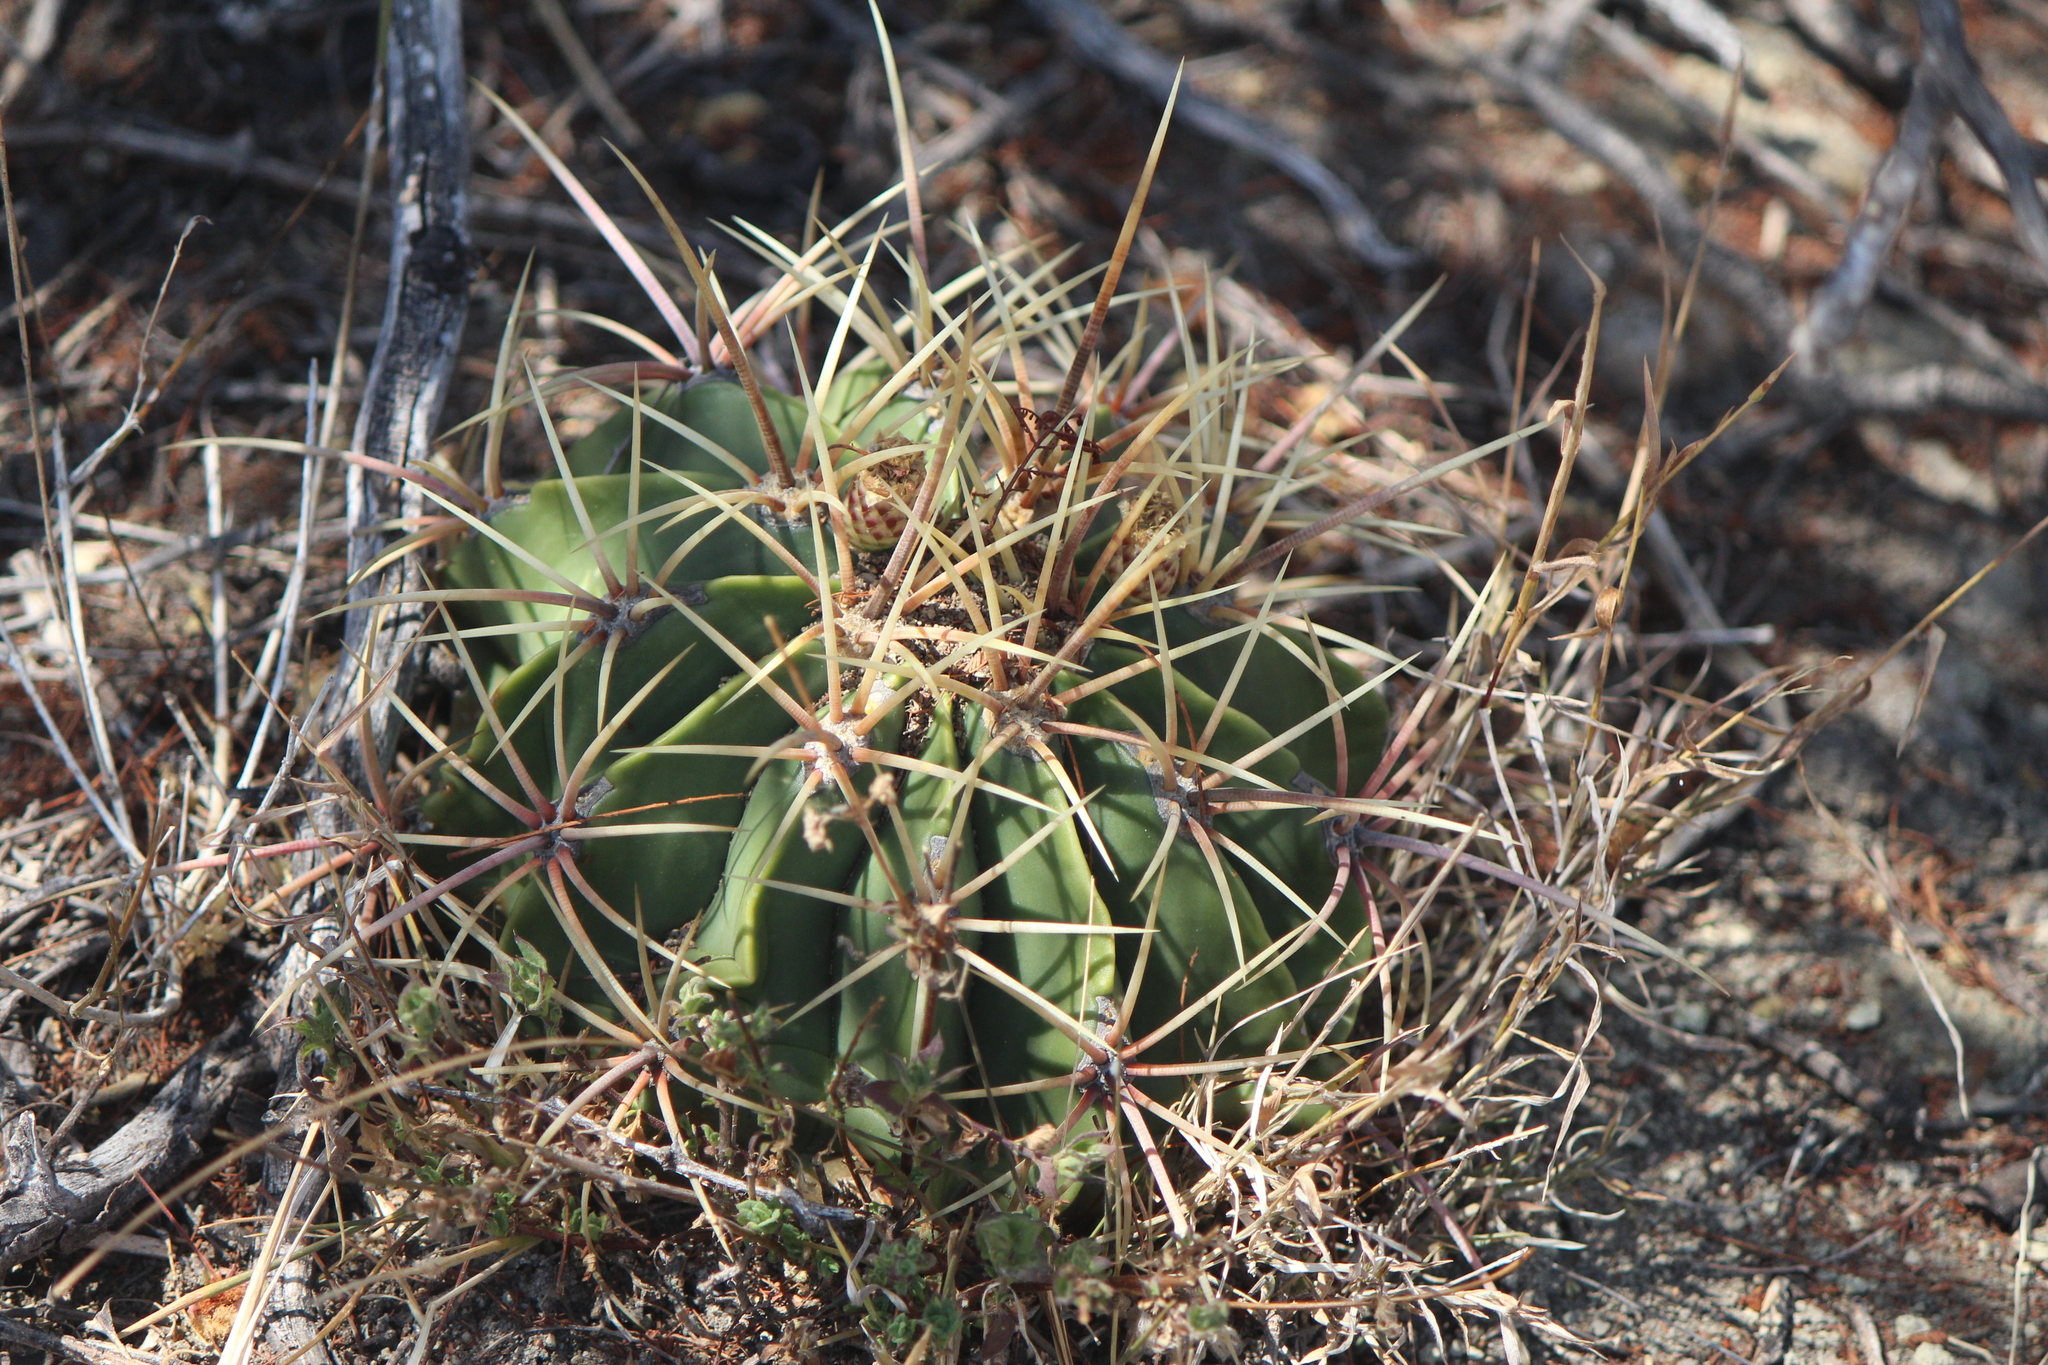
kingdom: Plantae
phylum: Tracheophyta
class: Magnoliopsida
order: Caryophyllales
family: Cactaceae
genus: Bisnaga
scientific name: Bisnaga histrix
